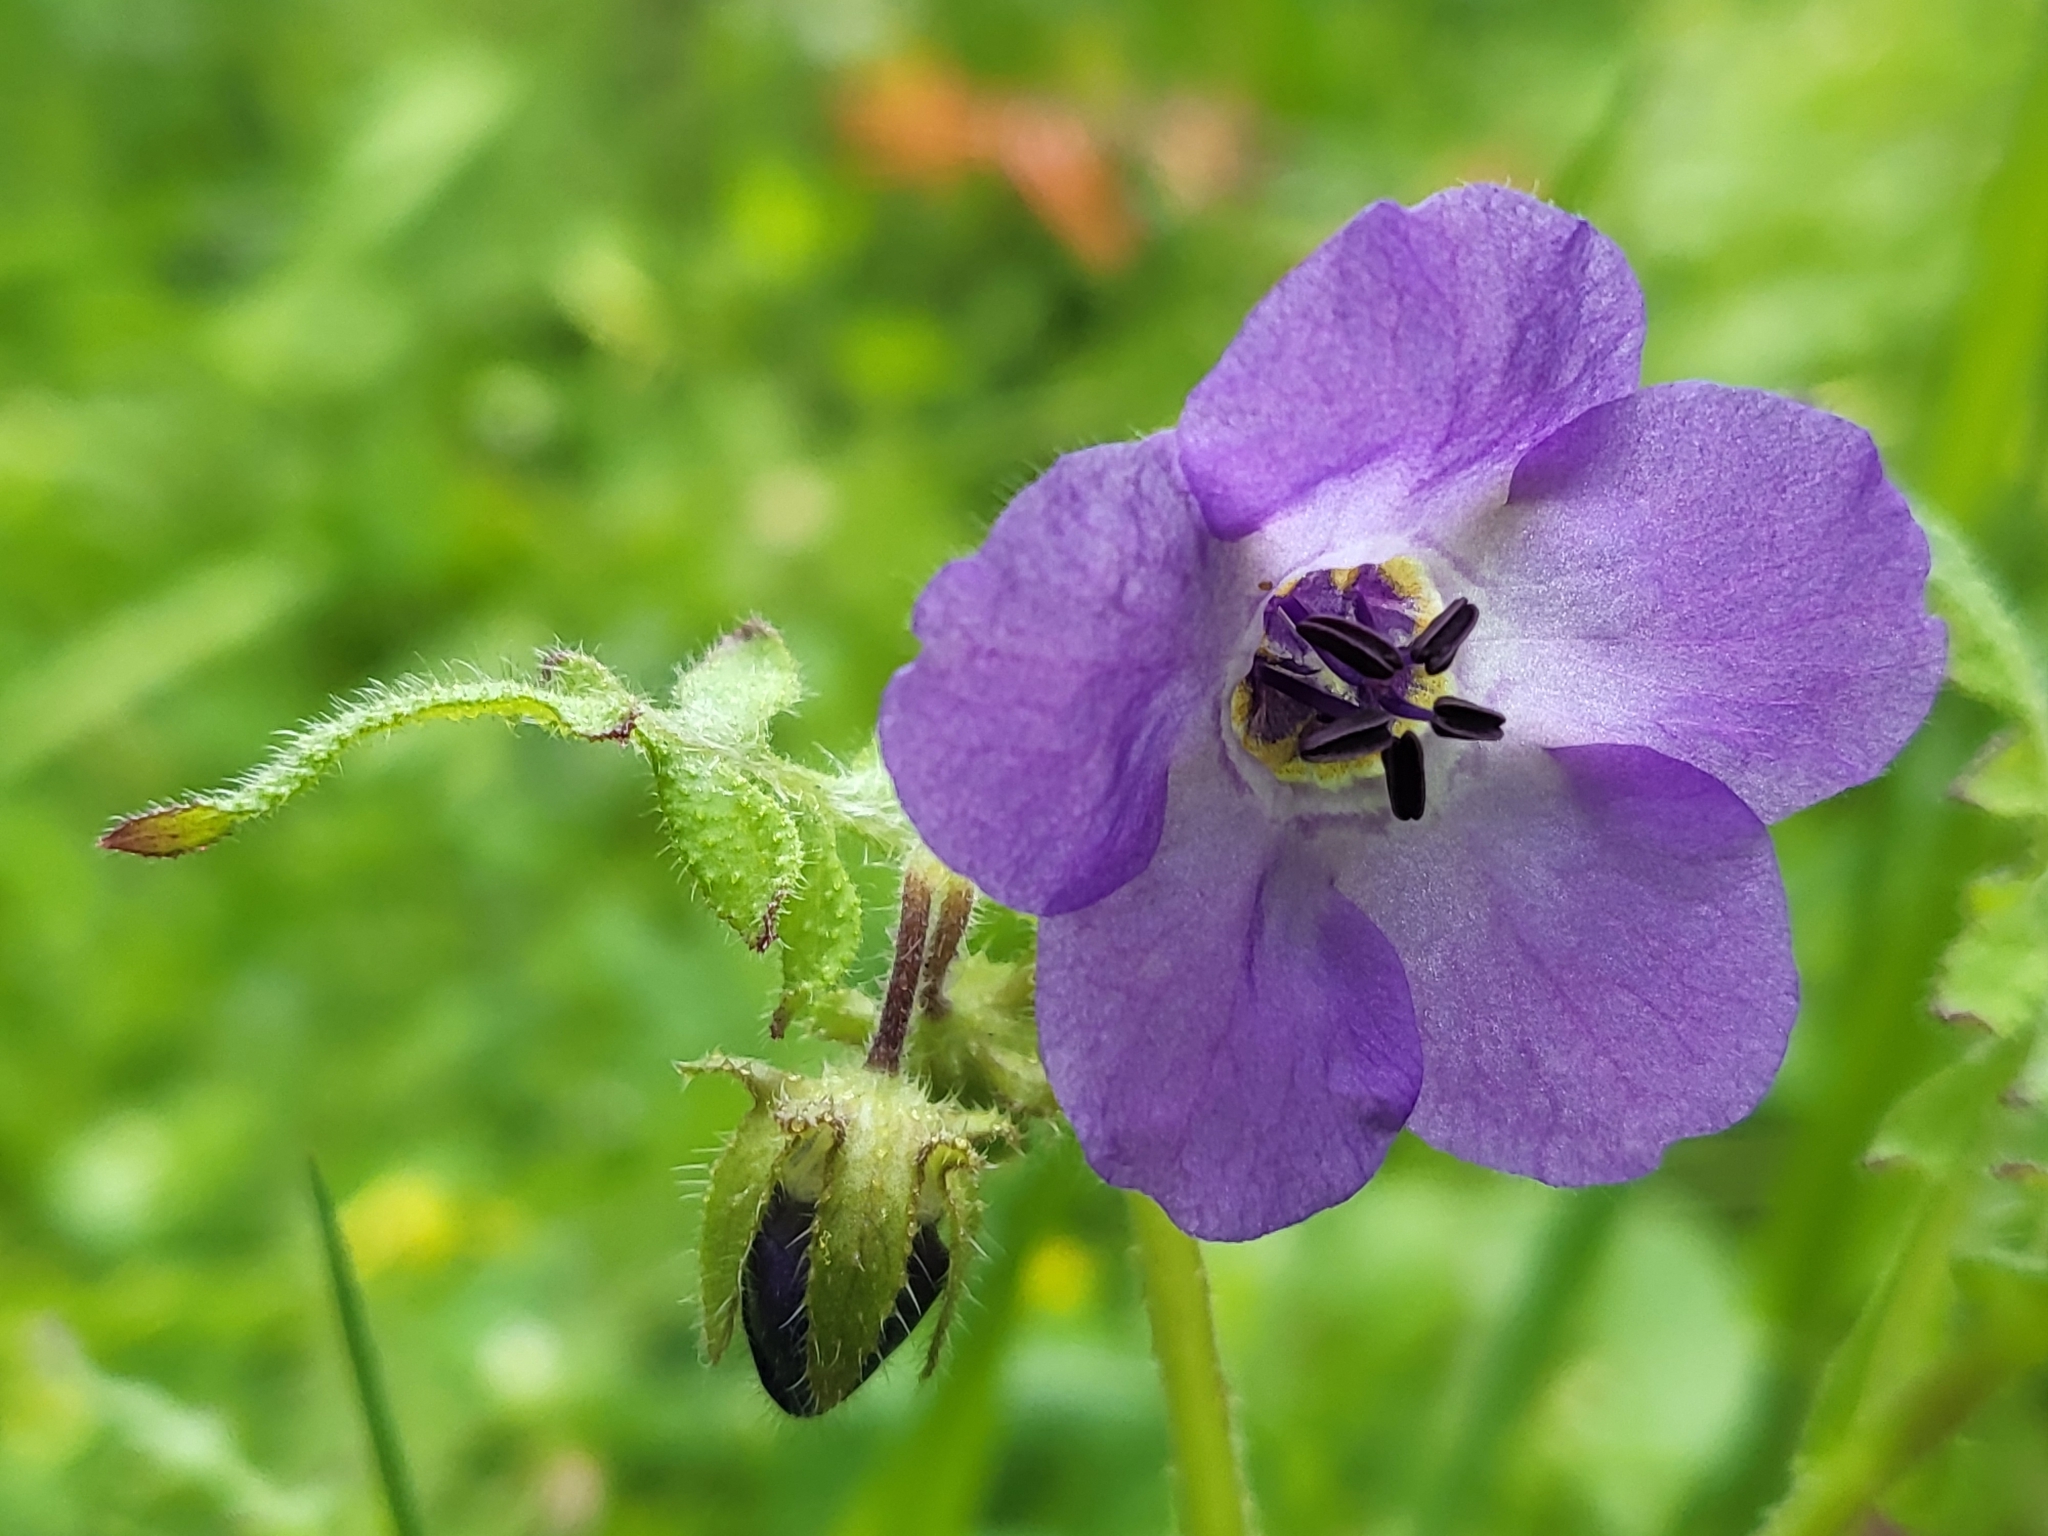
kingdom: Plantae
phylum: Tracheophyta
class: Magnoliopsida
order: Boraginales
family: Hydrophyllaceae
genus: Pholistoma
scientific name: Pholistoma auritum
